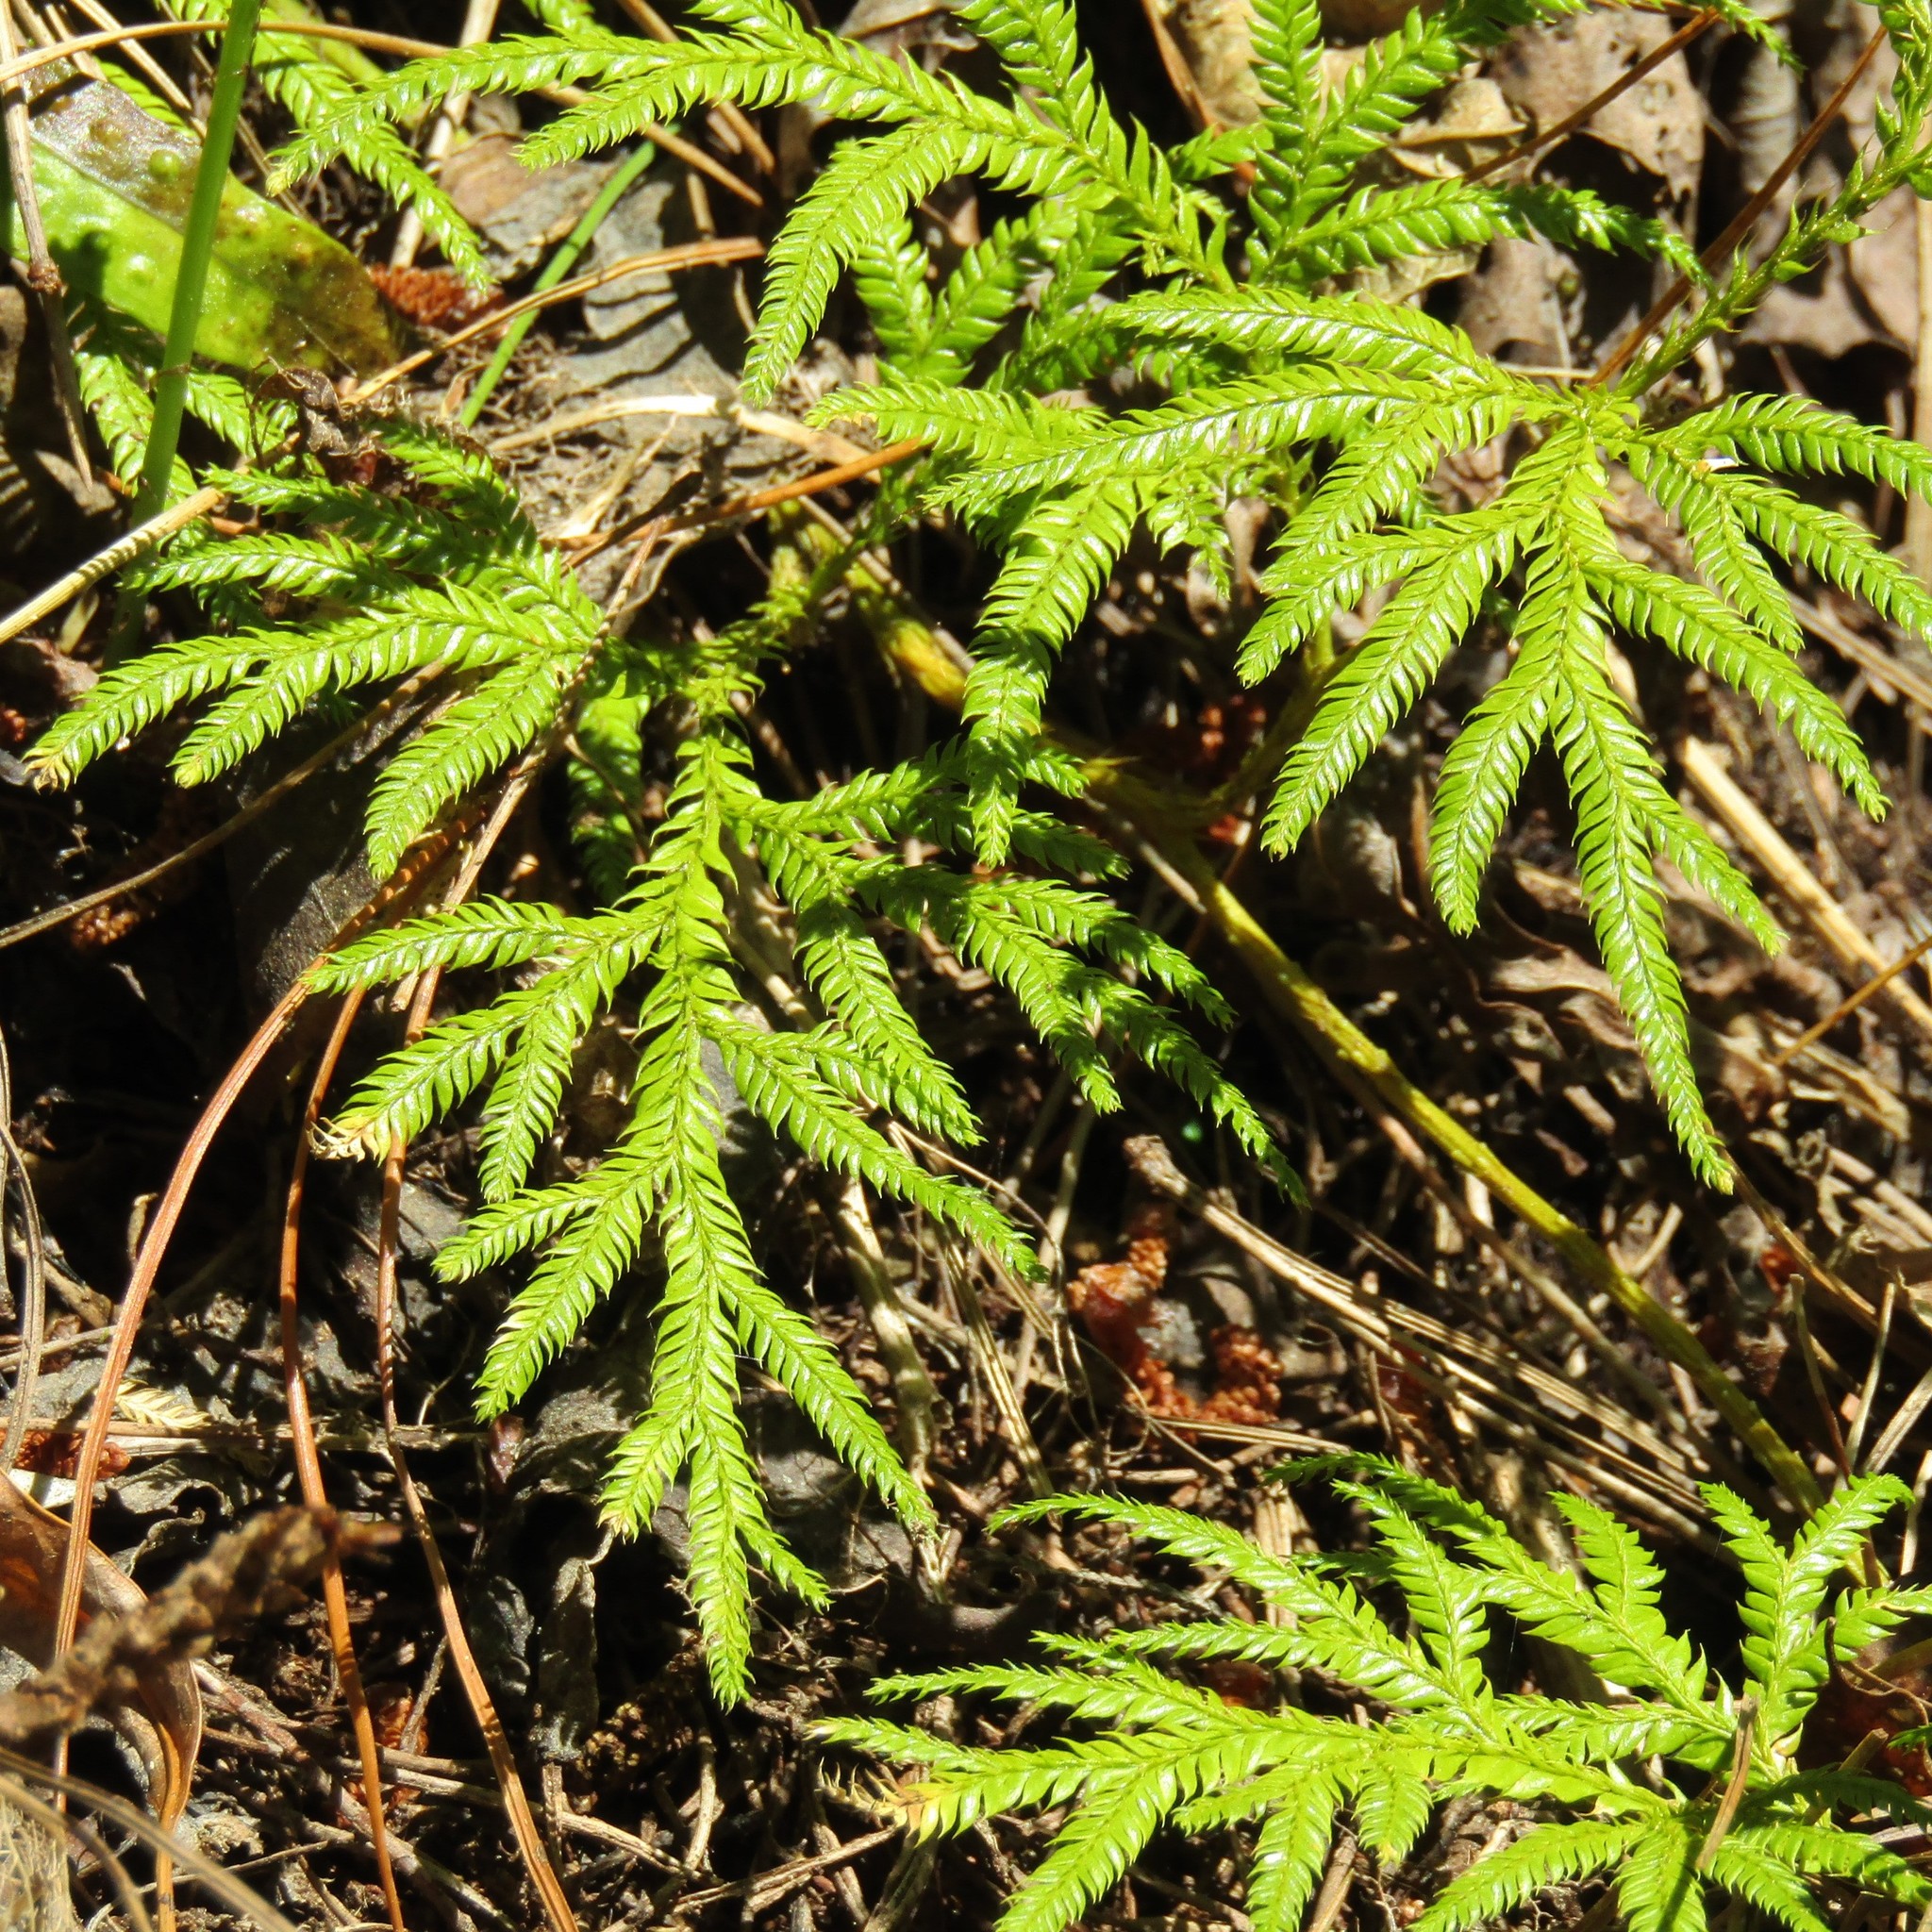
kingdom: Plantae
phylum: Tracheophyta
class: Lycopodiopsida
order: Lycopodiales
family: Lycopodiaceae
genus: Lycopodium
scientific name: Lycopodium volubile
